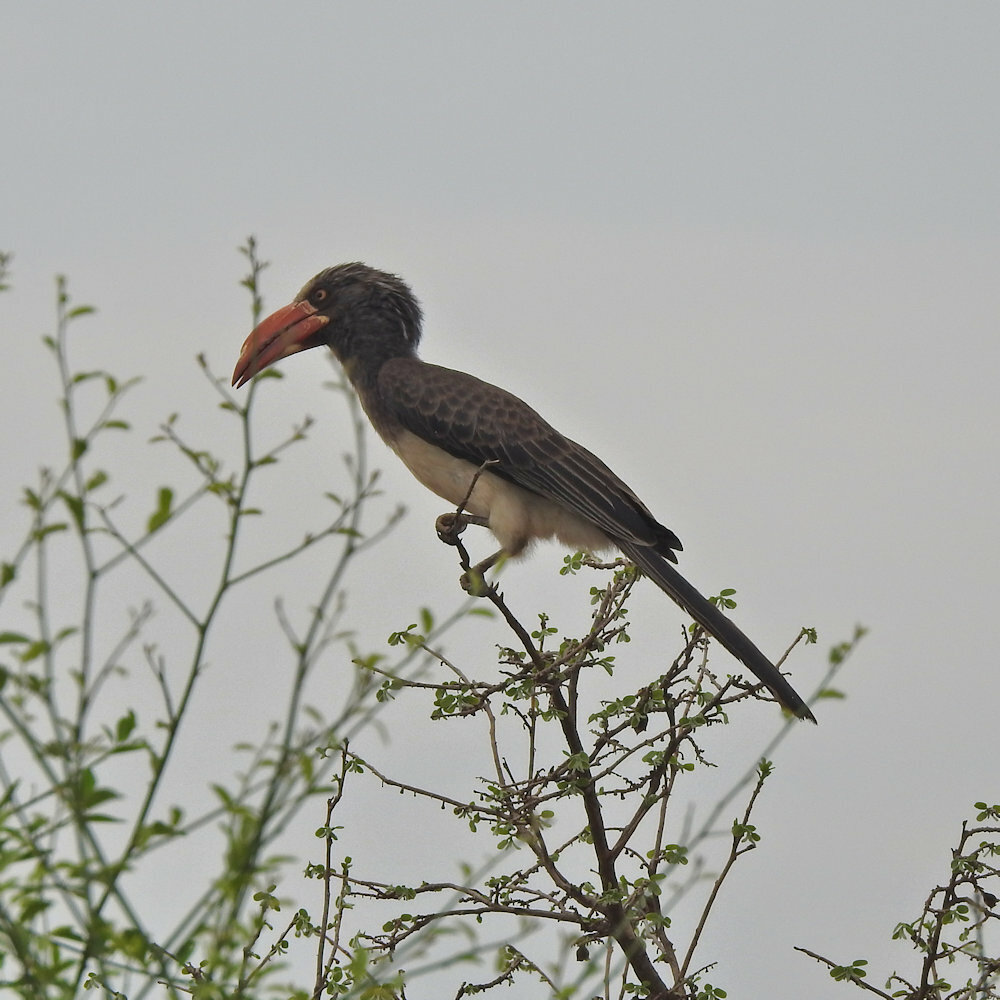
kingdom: Animalia
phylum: Chordata
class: Aves
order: Bucerotiformes
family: Bucerotidae
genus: Lophoceros
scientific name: Lophoceros alboterminatus
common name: Crowned hornbill
